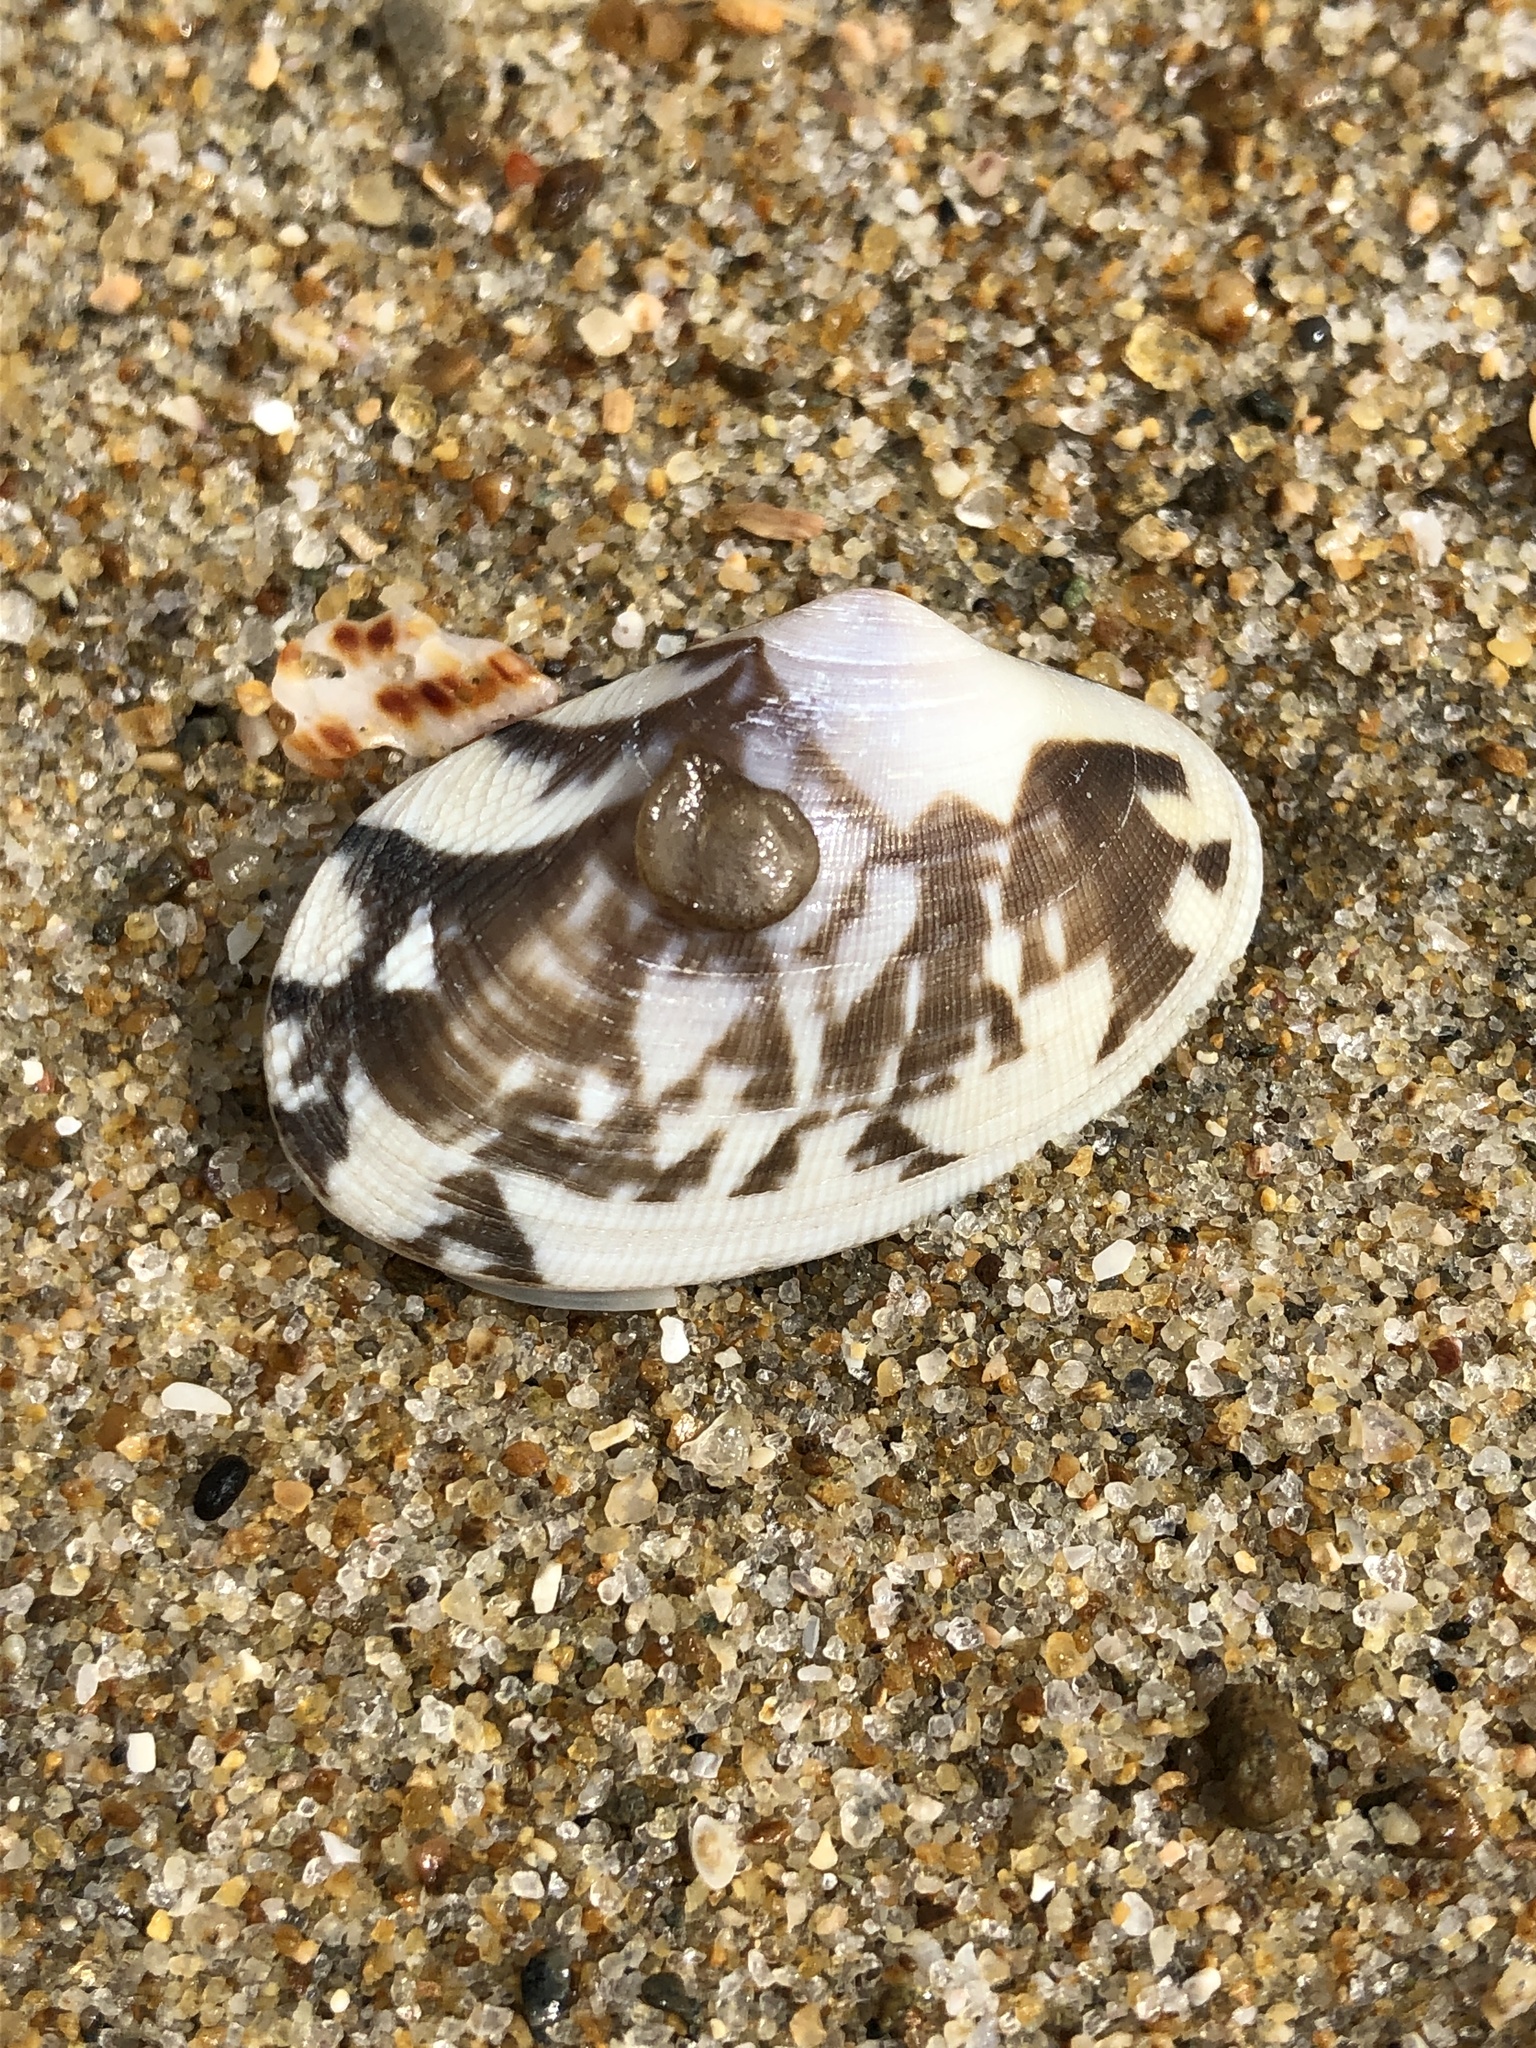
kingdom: Animalia
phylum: Mollusca
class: Bivalvia
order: Venerida
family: Veneridae
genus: Ruditapes
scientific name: Ruditapes philippinarum
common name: Manila clam
